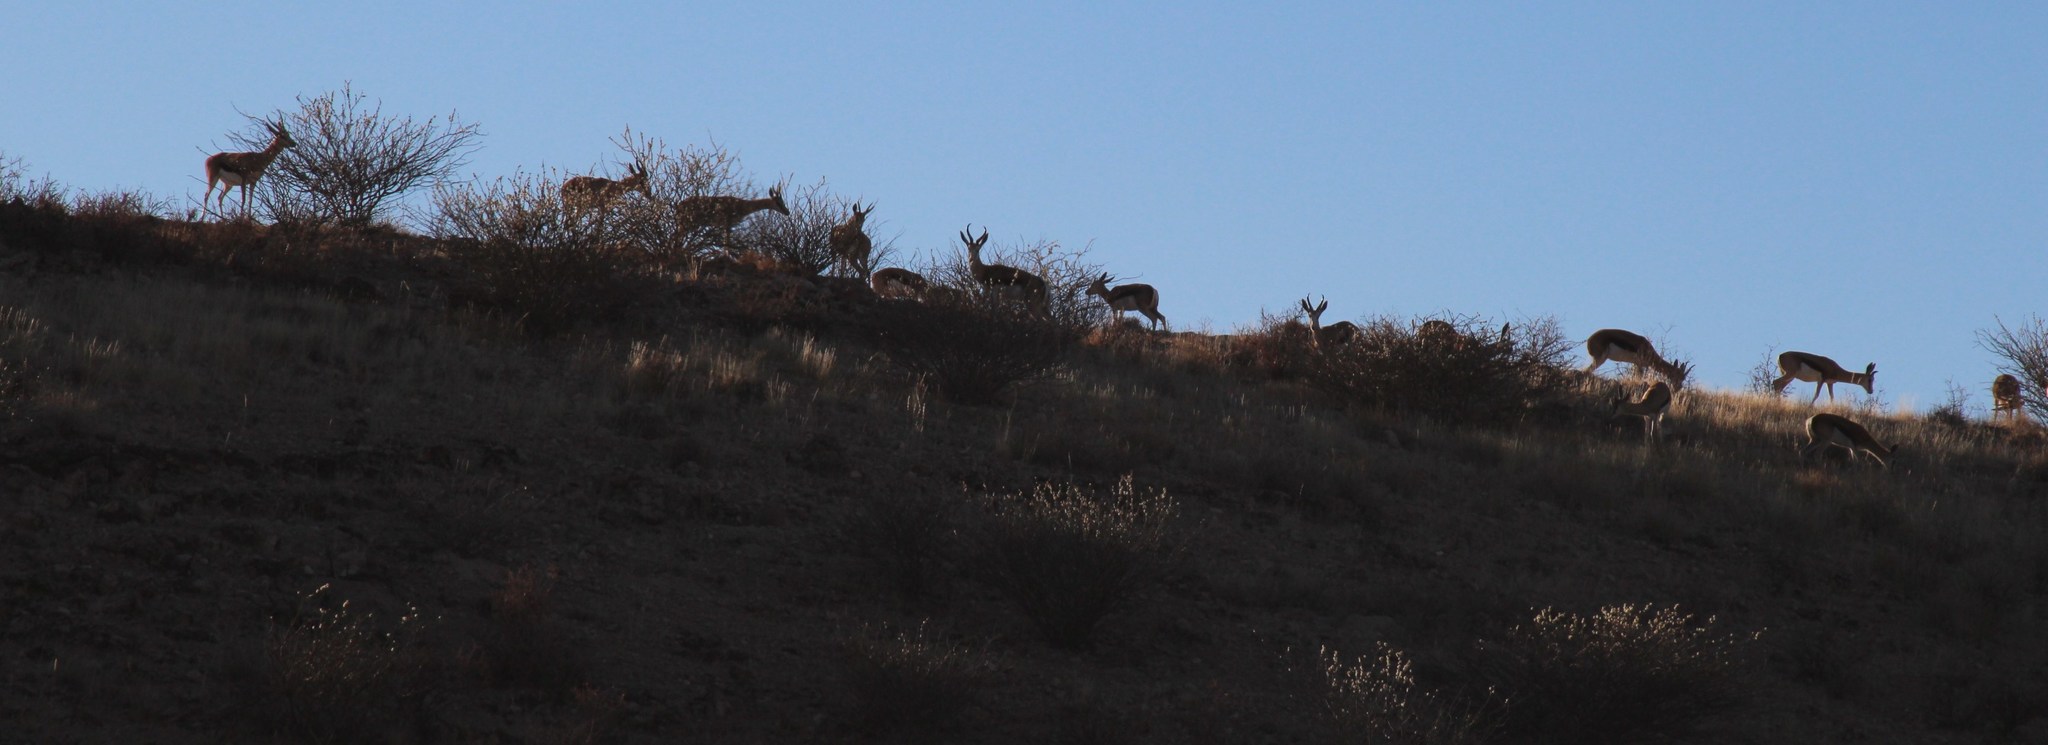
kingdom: Animalia
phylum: Chordata
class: Mammalia
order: Artiodactyla
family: Bovidae
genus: Antidorcas
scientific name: Antidorcas marsupialis
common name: Springbok
